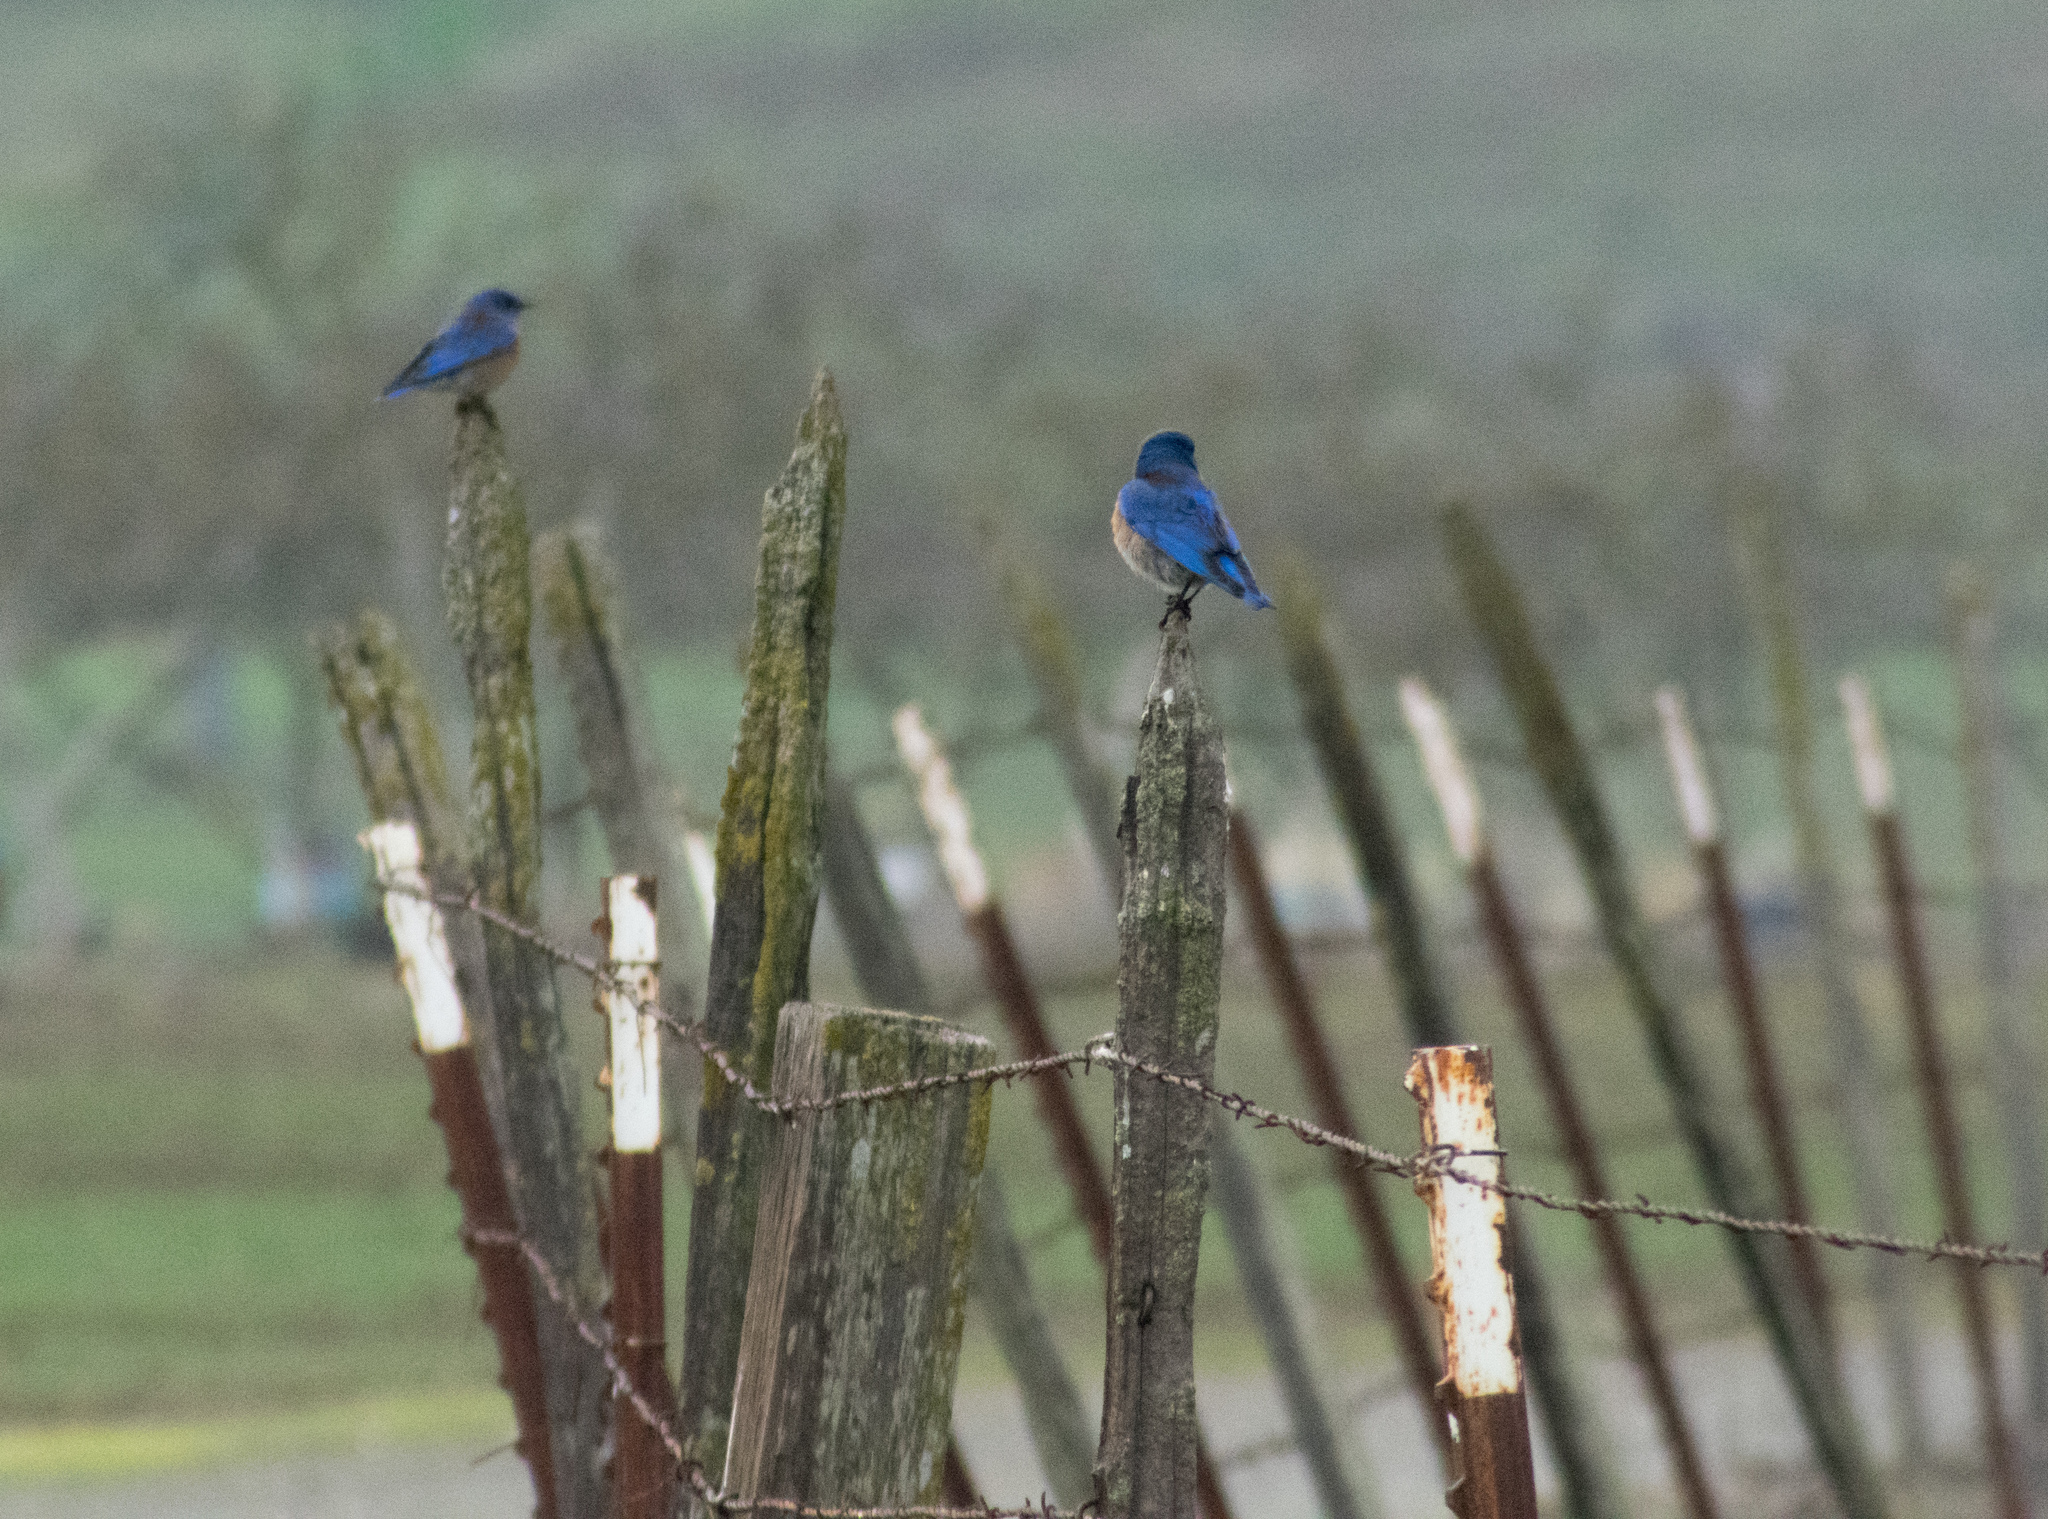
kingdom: Animalia
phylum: Chordata
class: Aves
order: Passeriformes
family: Turdidae
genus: Sialia
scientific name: Sialia mexicana
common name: Western bluebird
